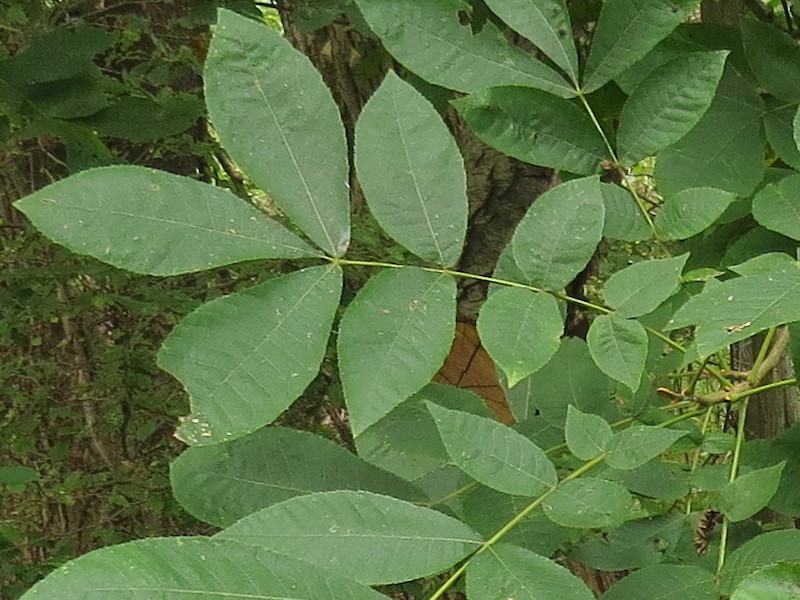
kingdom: Plantae
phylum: Tracheophyta
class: Magnoliopsida
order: Fagales
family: Juglandaceae
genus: Carya
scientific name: Carya cordiformis
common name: Bitternut hickory
